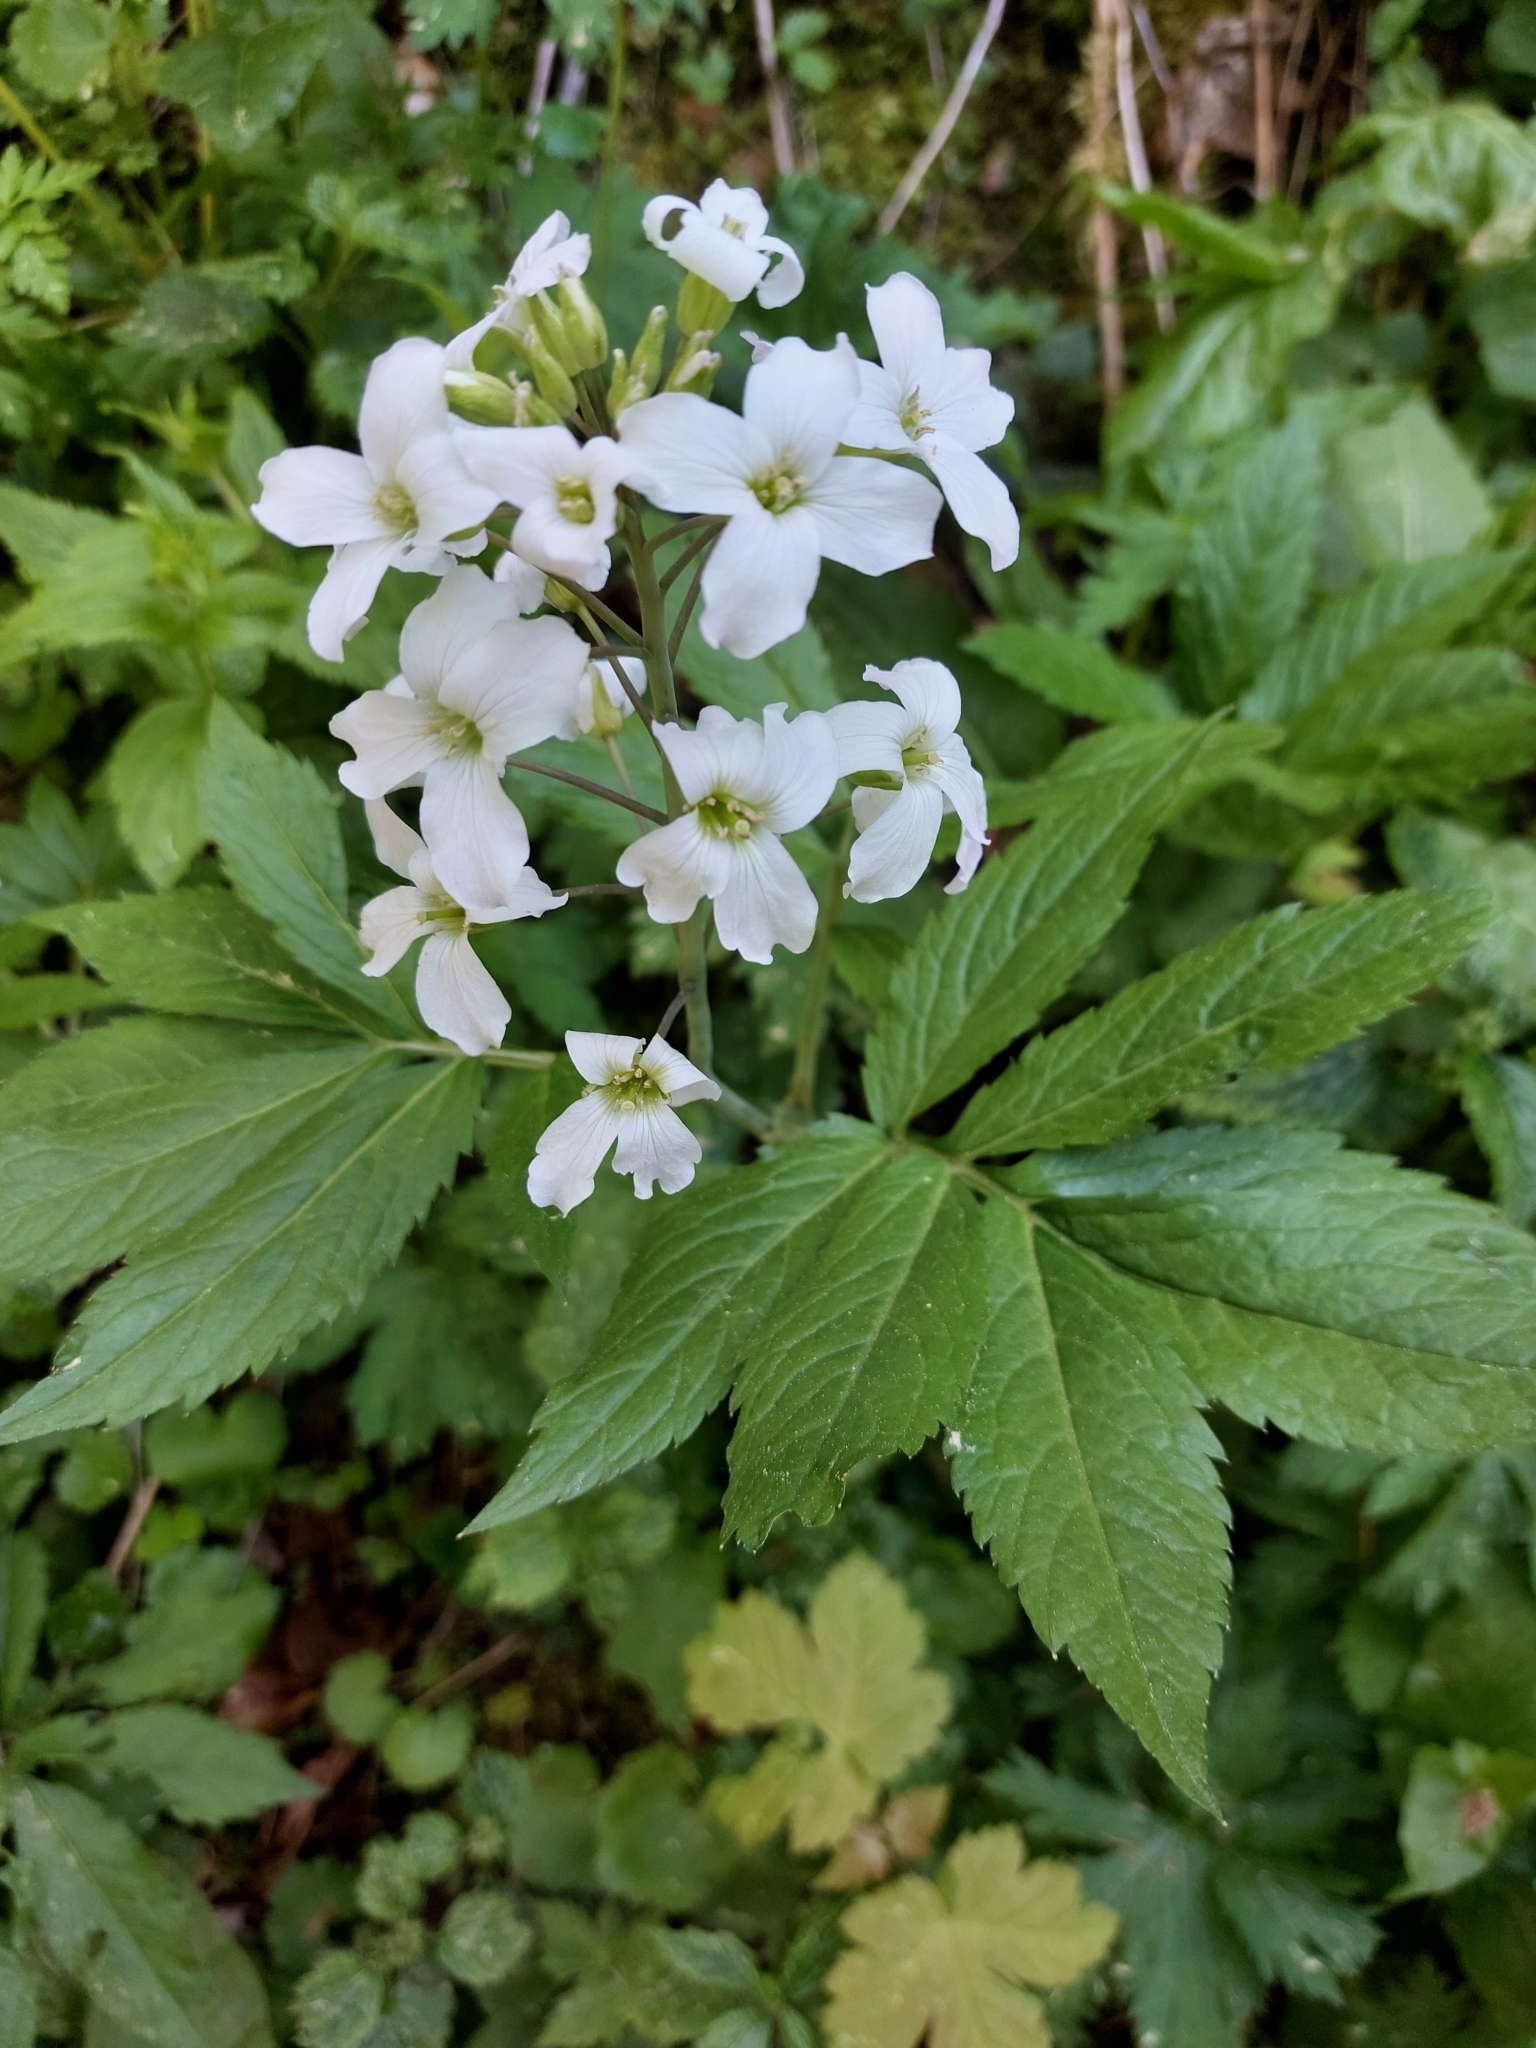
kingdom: Plantae
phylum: Tracheophyta
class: Magnoliopsida
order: Brassicales
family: Brassicaceae
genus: Cardamine
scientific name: Cardamine heptaphylla
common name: Pinnate coralroot
